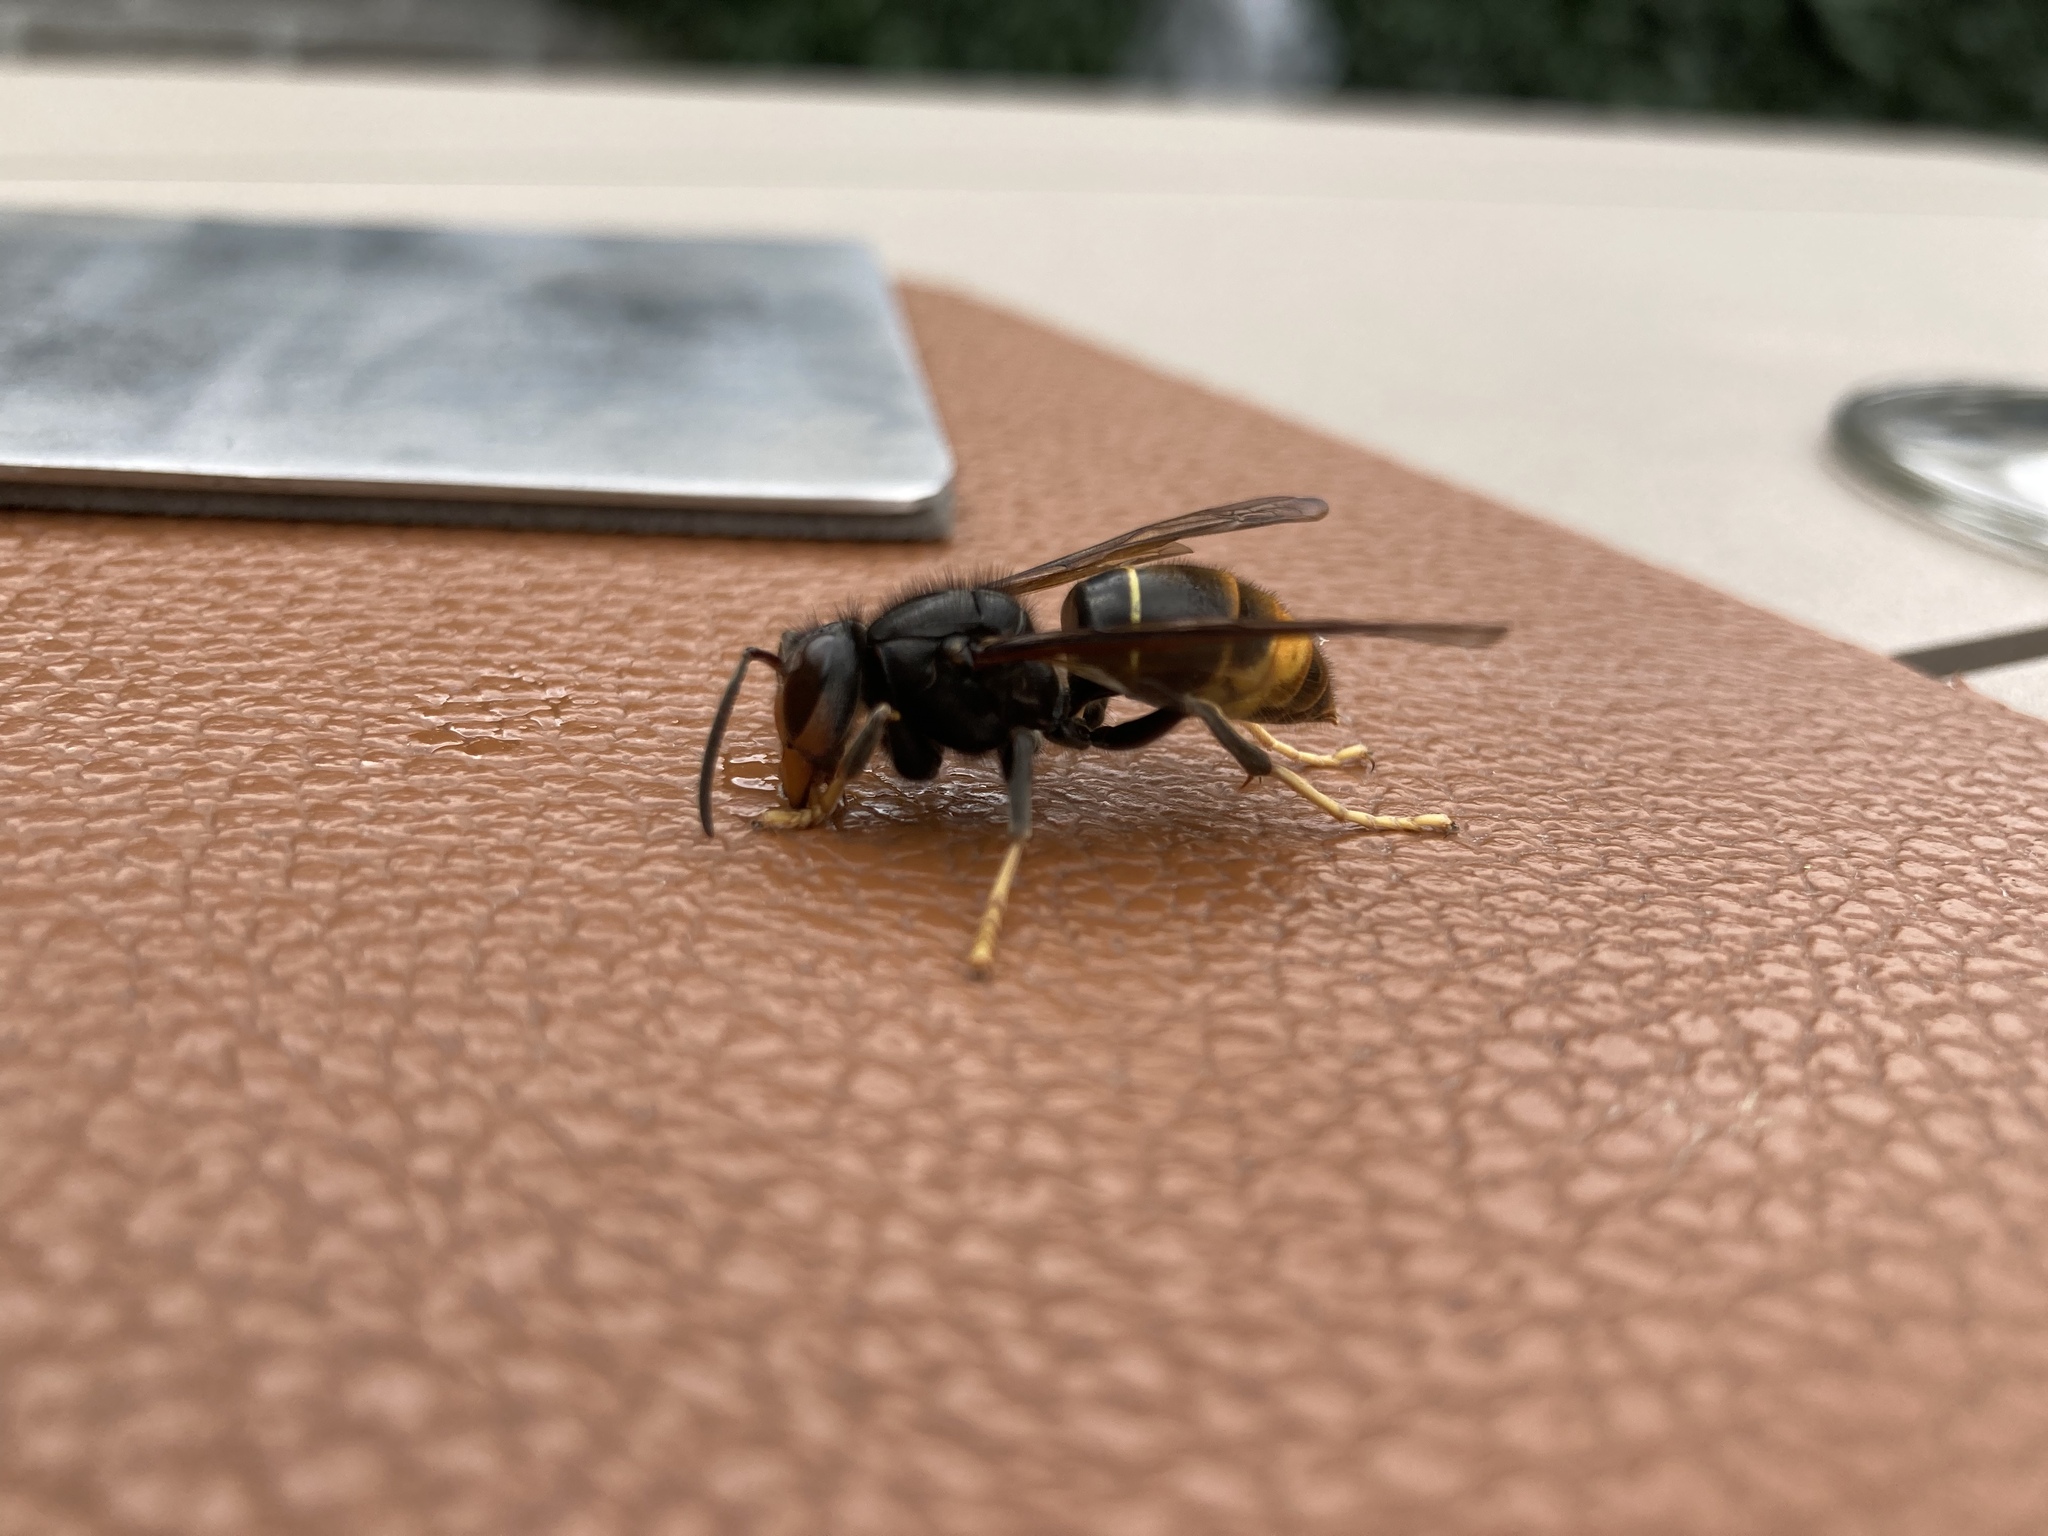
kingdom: Animalia
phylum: Arthropoda
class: Insecta
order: Hymenoptera
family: Vespidae
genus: Vespa
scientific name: Vespa velutina
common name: Asian hornet
